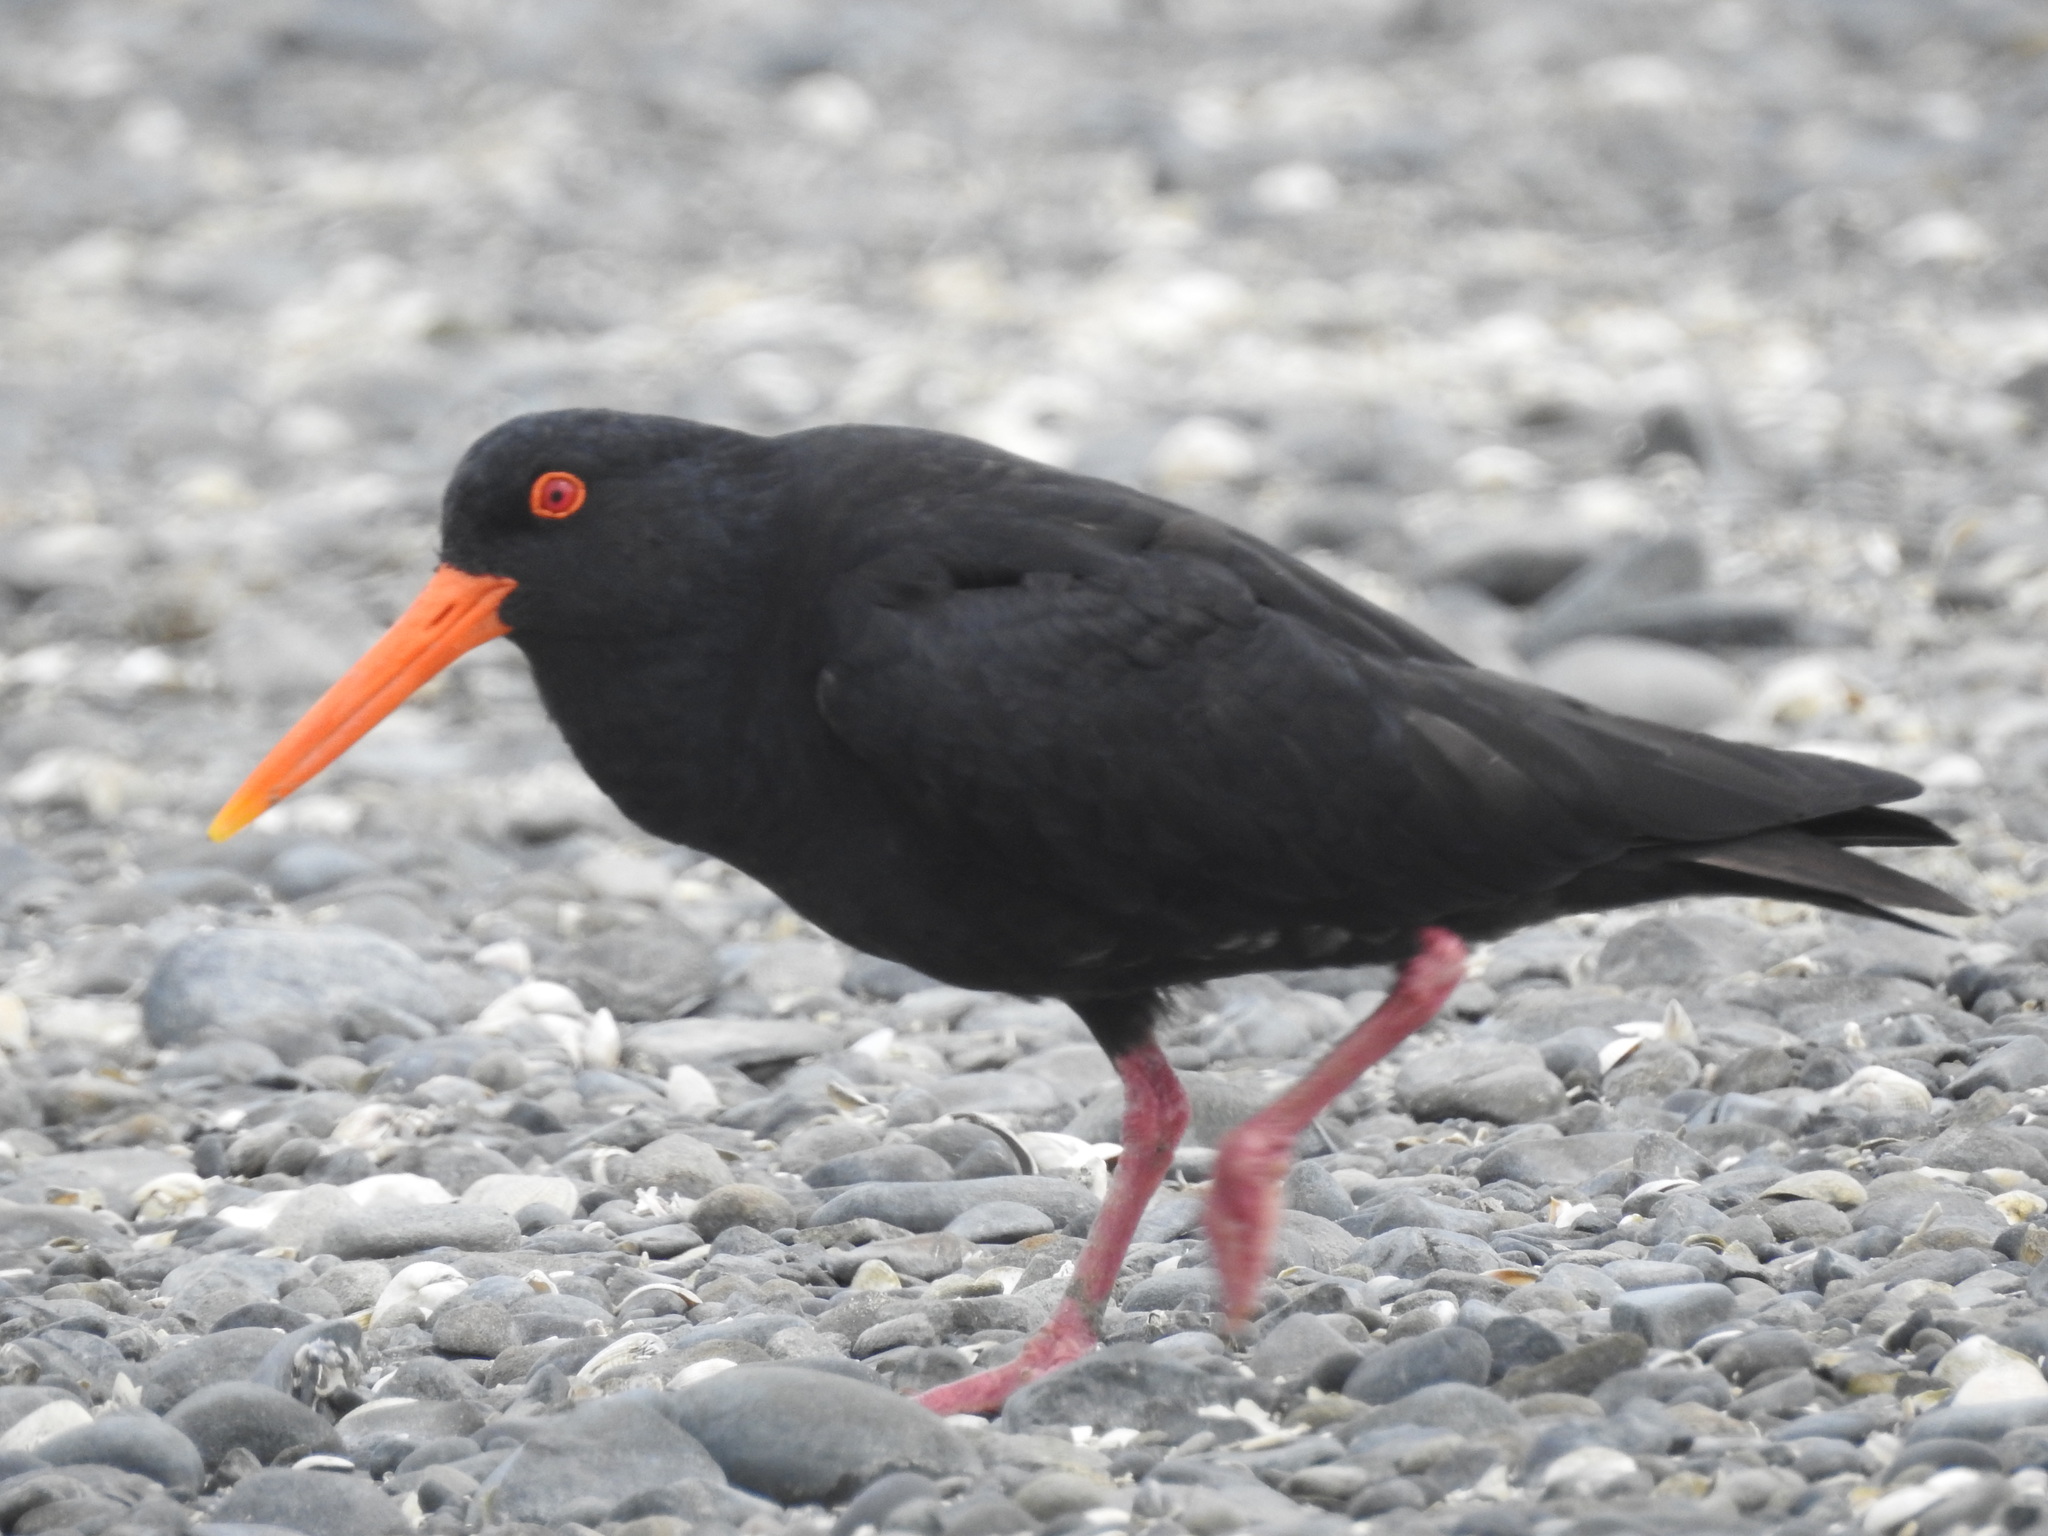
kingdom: Animalia
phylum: Chordata
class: Aves
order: Charadriiformes
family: Haematopodidae
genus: Haematopus
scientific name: Haematopus unicolor
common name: Variable oystercatcher
